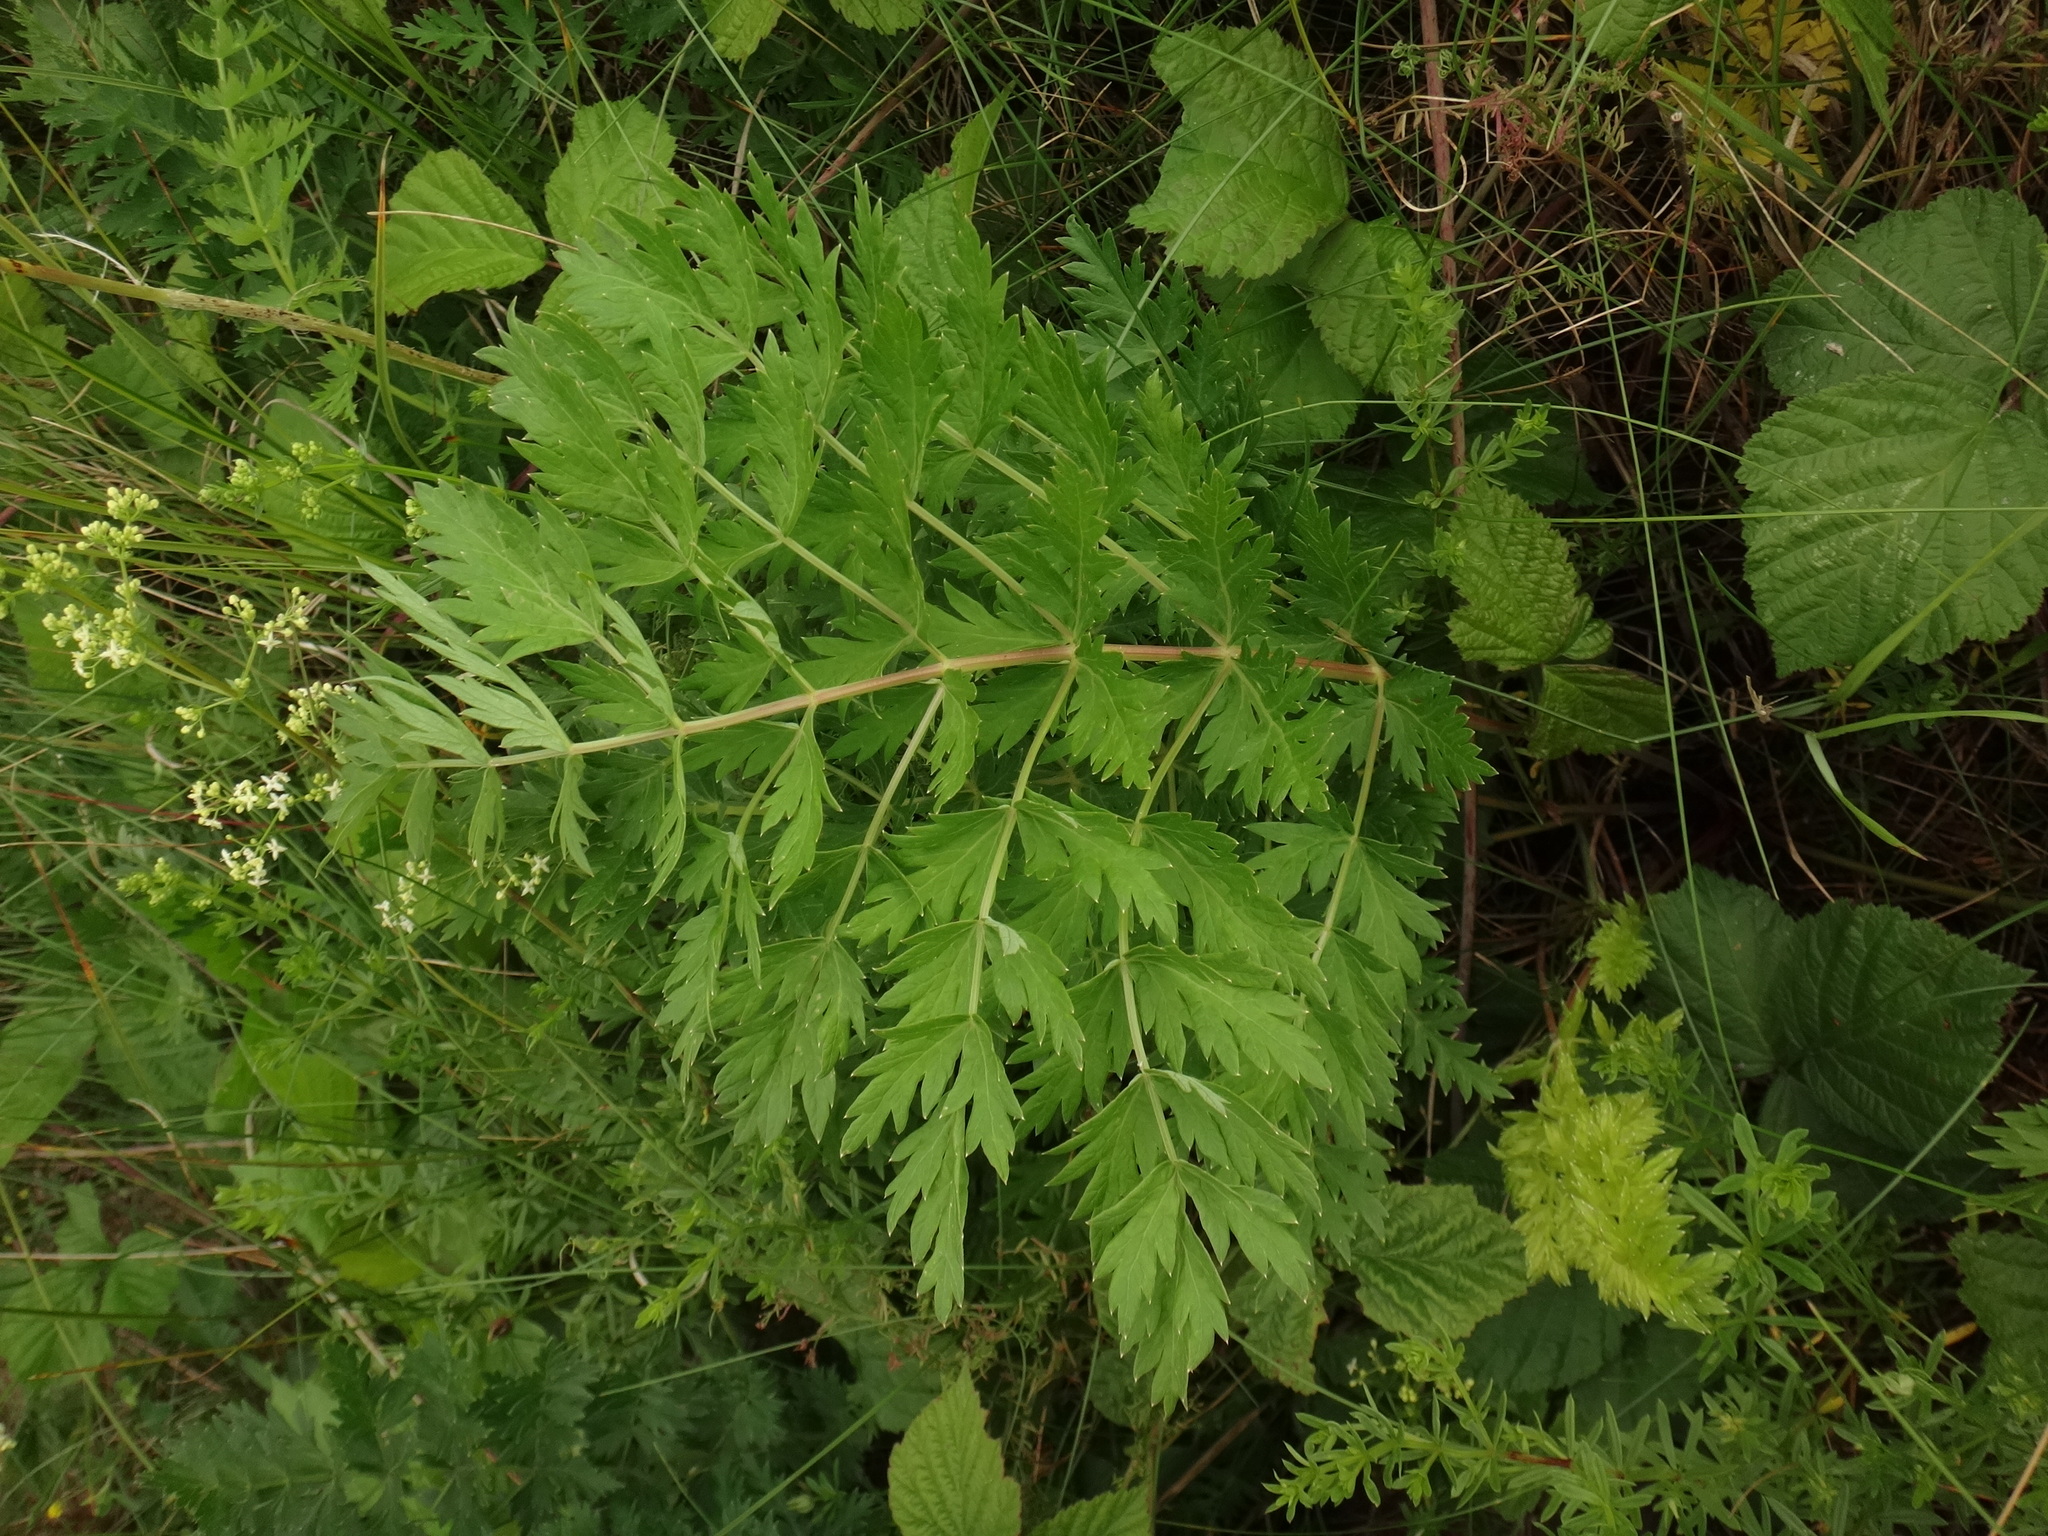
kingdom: Plantae
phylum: Tracheophyta
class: Magnoliopsida
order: Apiales
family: Apiaceae
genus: Seseli
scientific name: Seseli libanotis
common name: Mooncarrot
